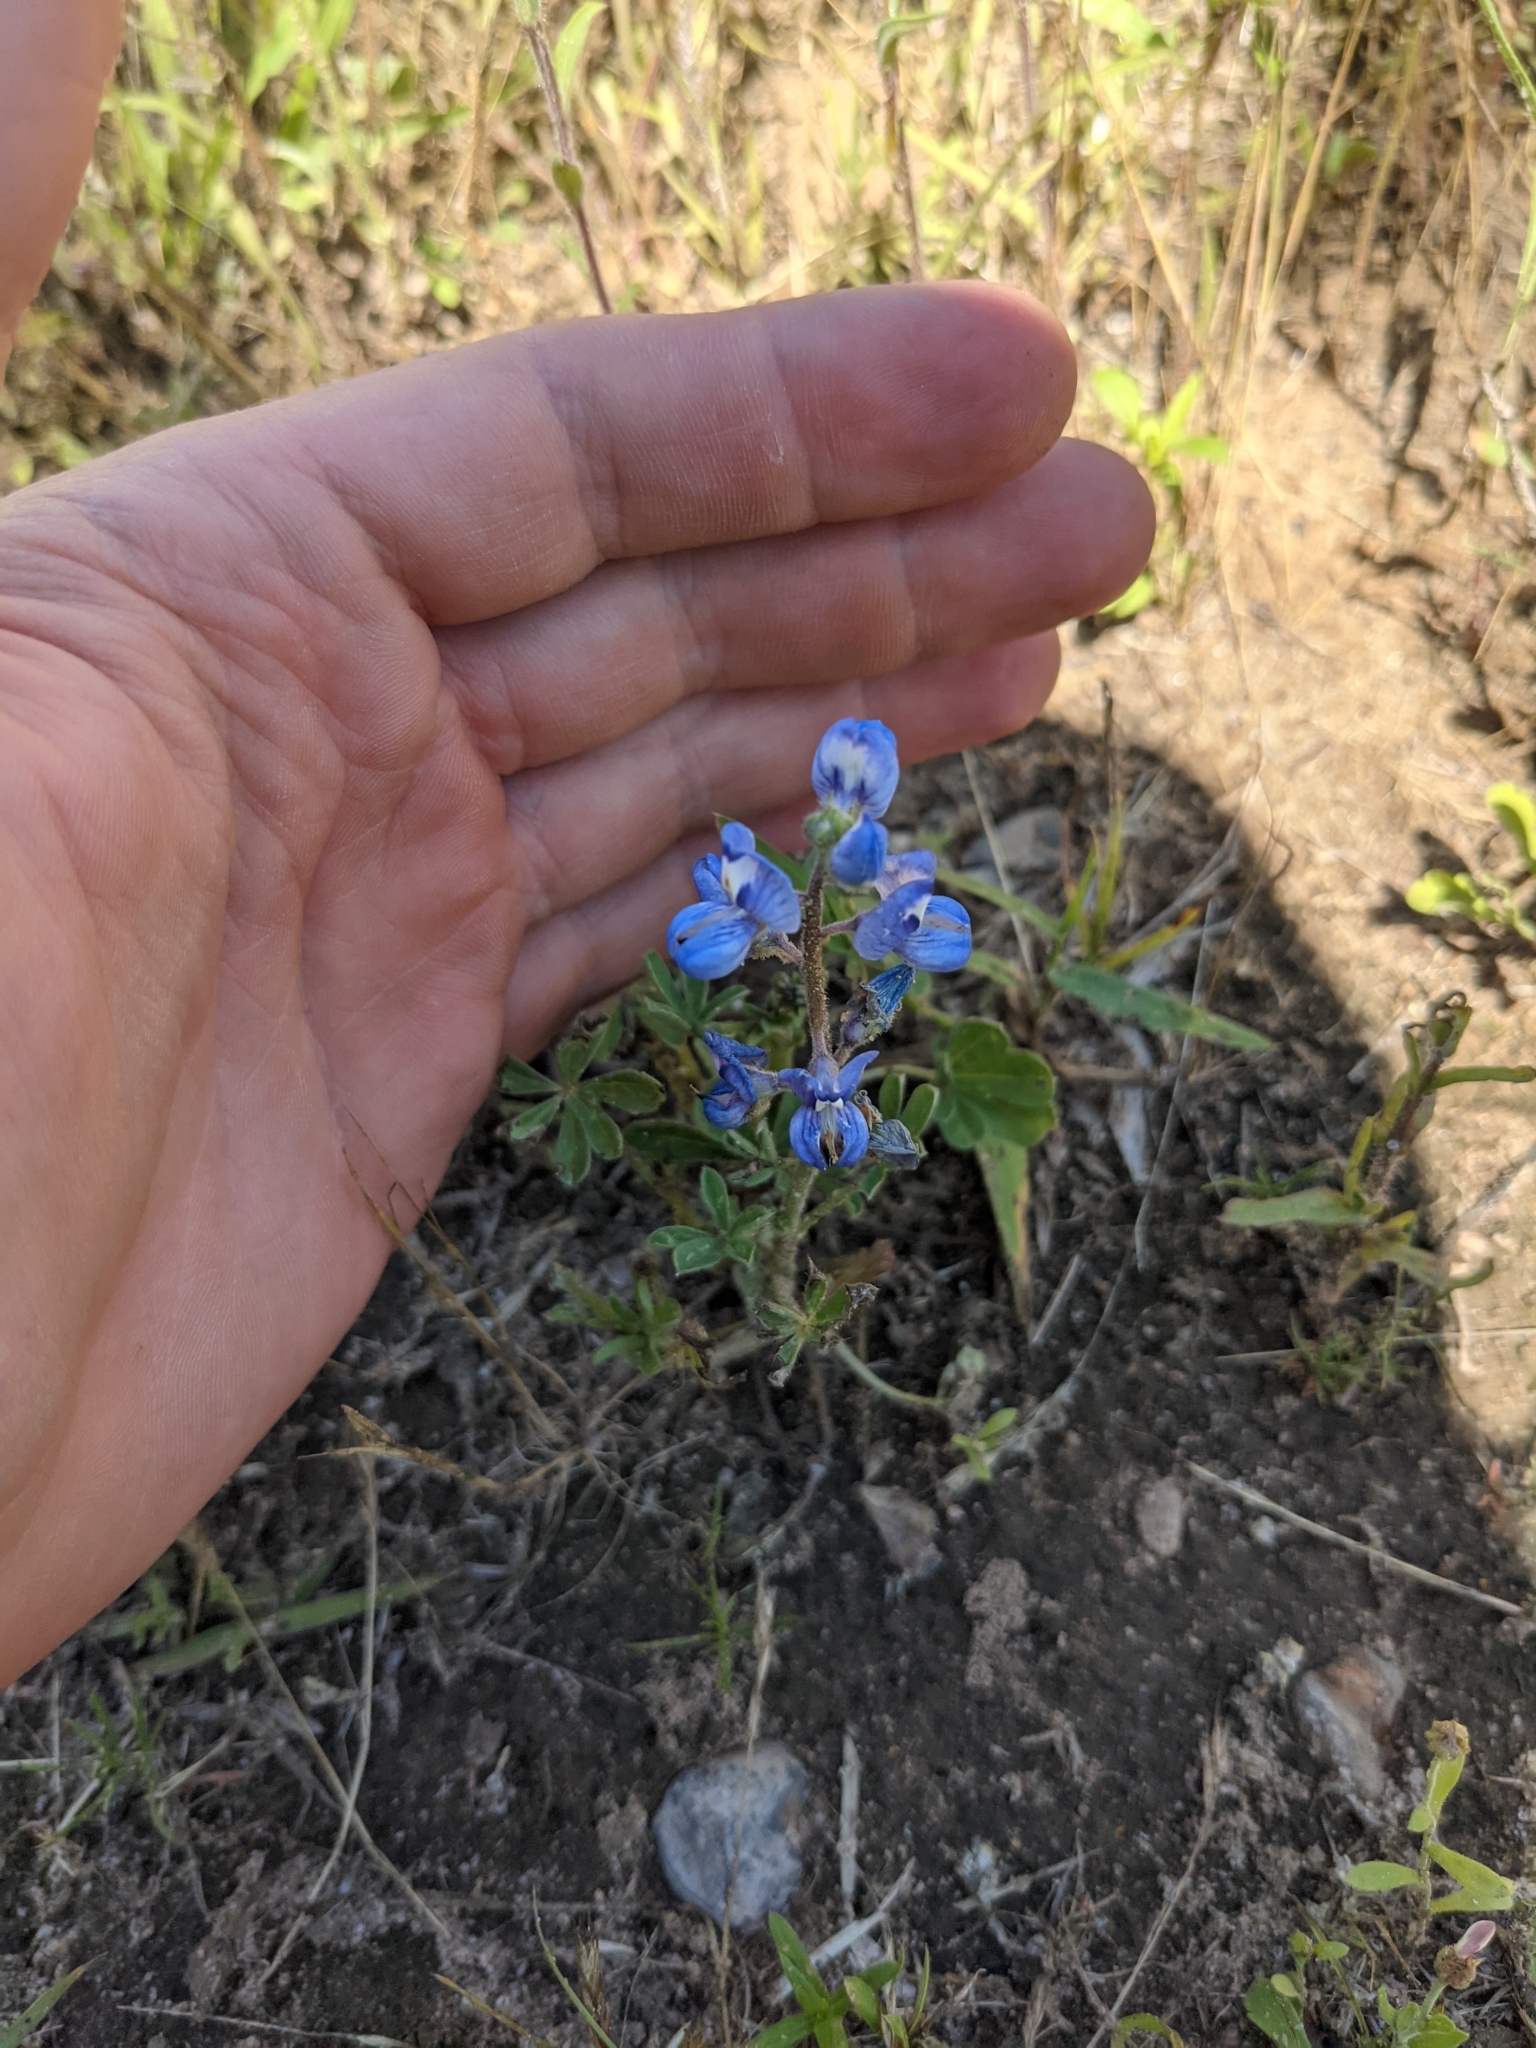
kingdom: Plantae
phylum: Tracheophyta
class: Magnoliopsida
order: Fabales
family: Fabaceae
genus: Lupinus
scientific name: Lupinus subcarnosus
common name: Texas bluebonnet
